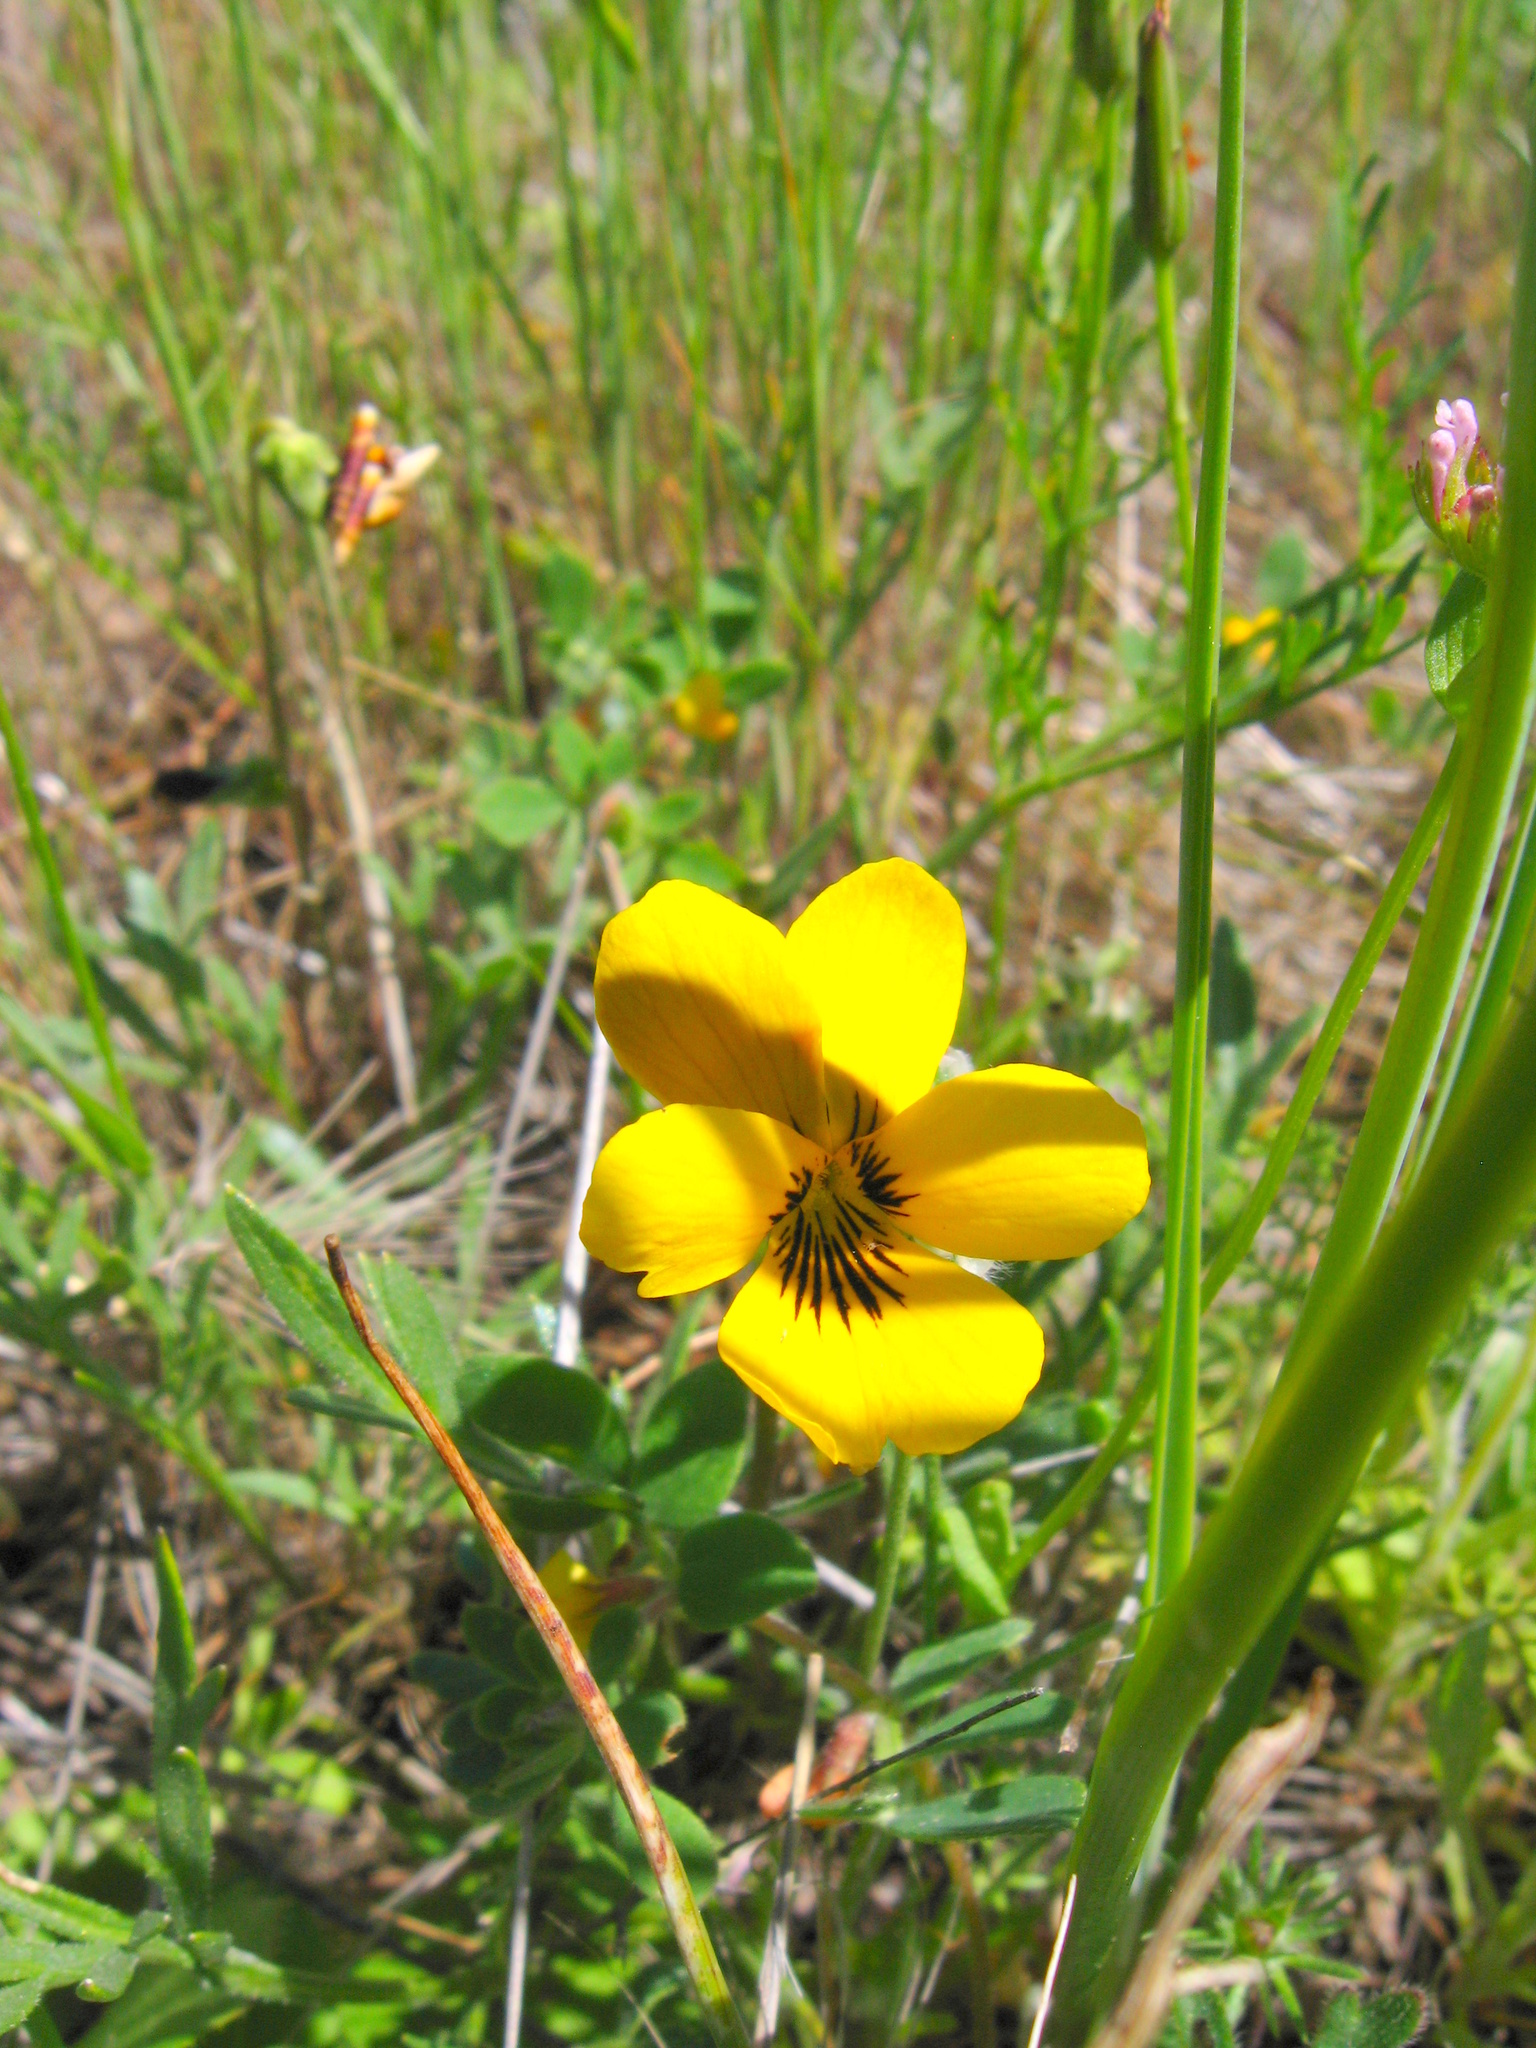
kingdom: Plantae
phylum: Tracheophyta
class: Magnoliopsida
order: Malpighiales
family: Violaceae
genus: Viola
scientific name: Viola douglasii
